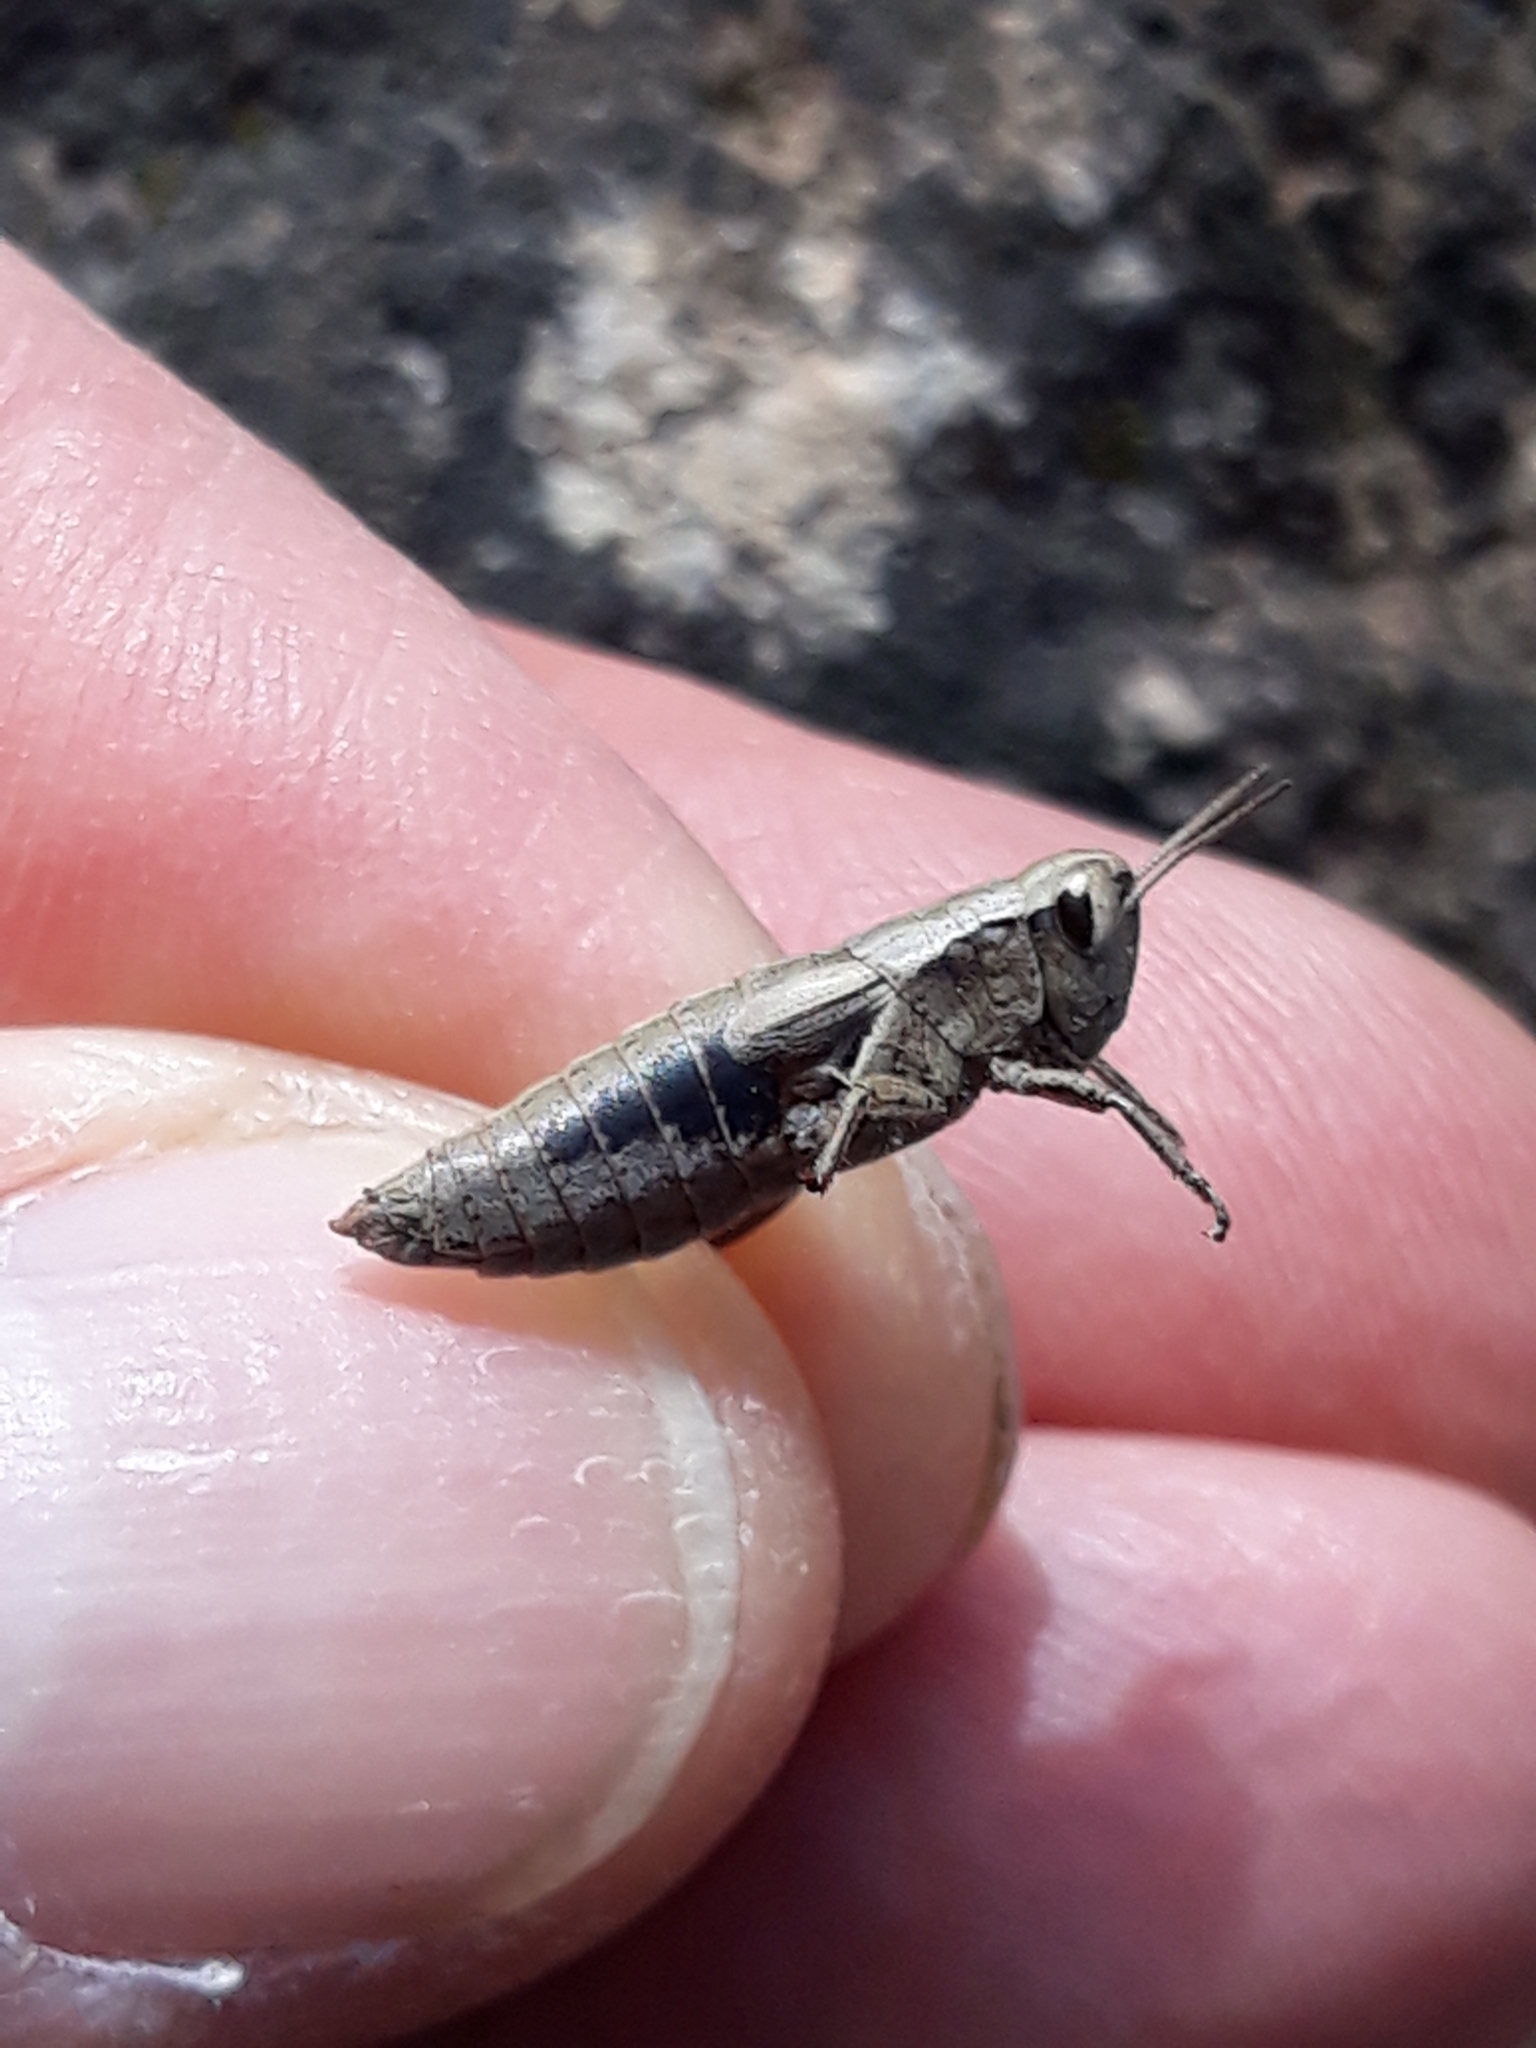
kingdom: Animalia
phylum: Arthropoda
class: Insecta
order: Orthoptera
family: Acrididae
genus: Pezotettix
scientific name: Pezotettix giornae
